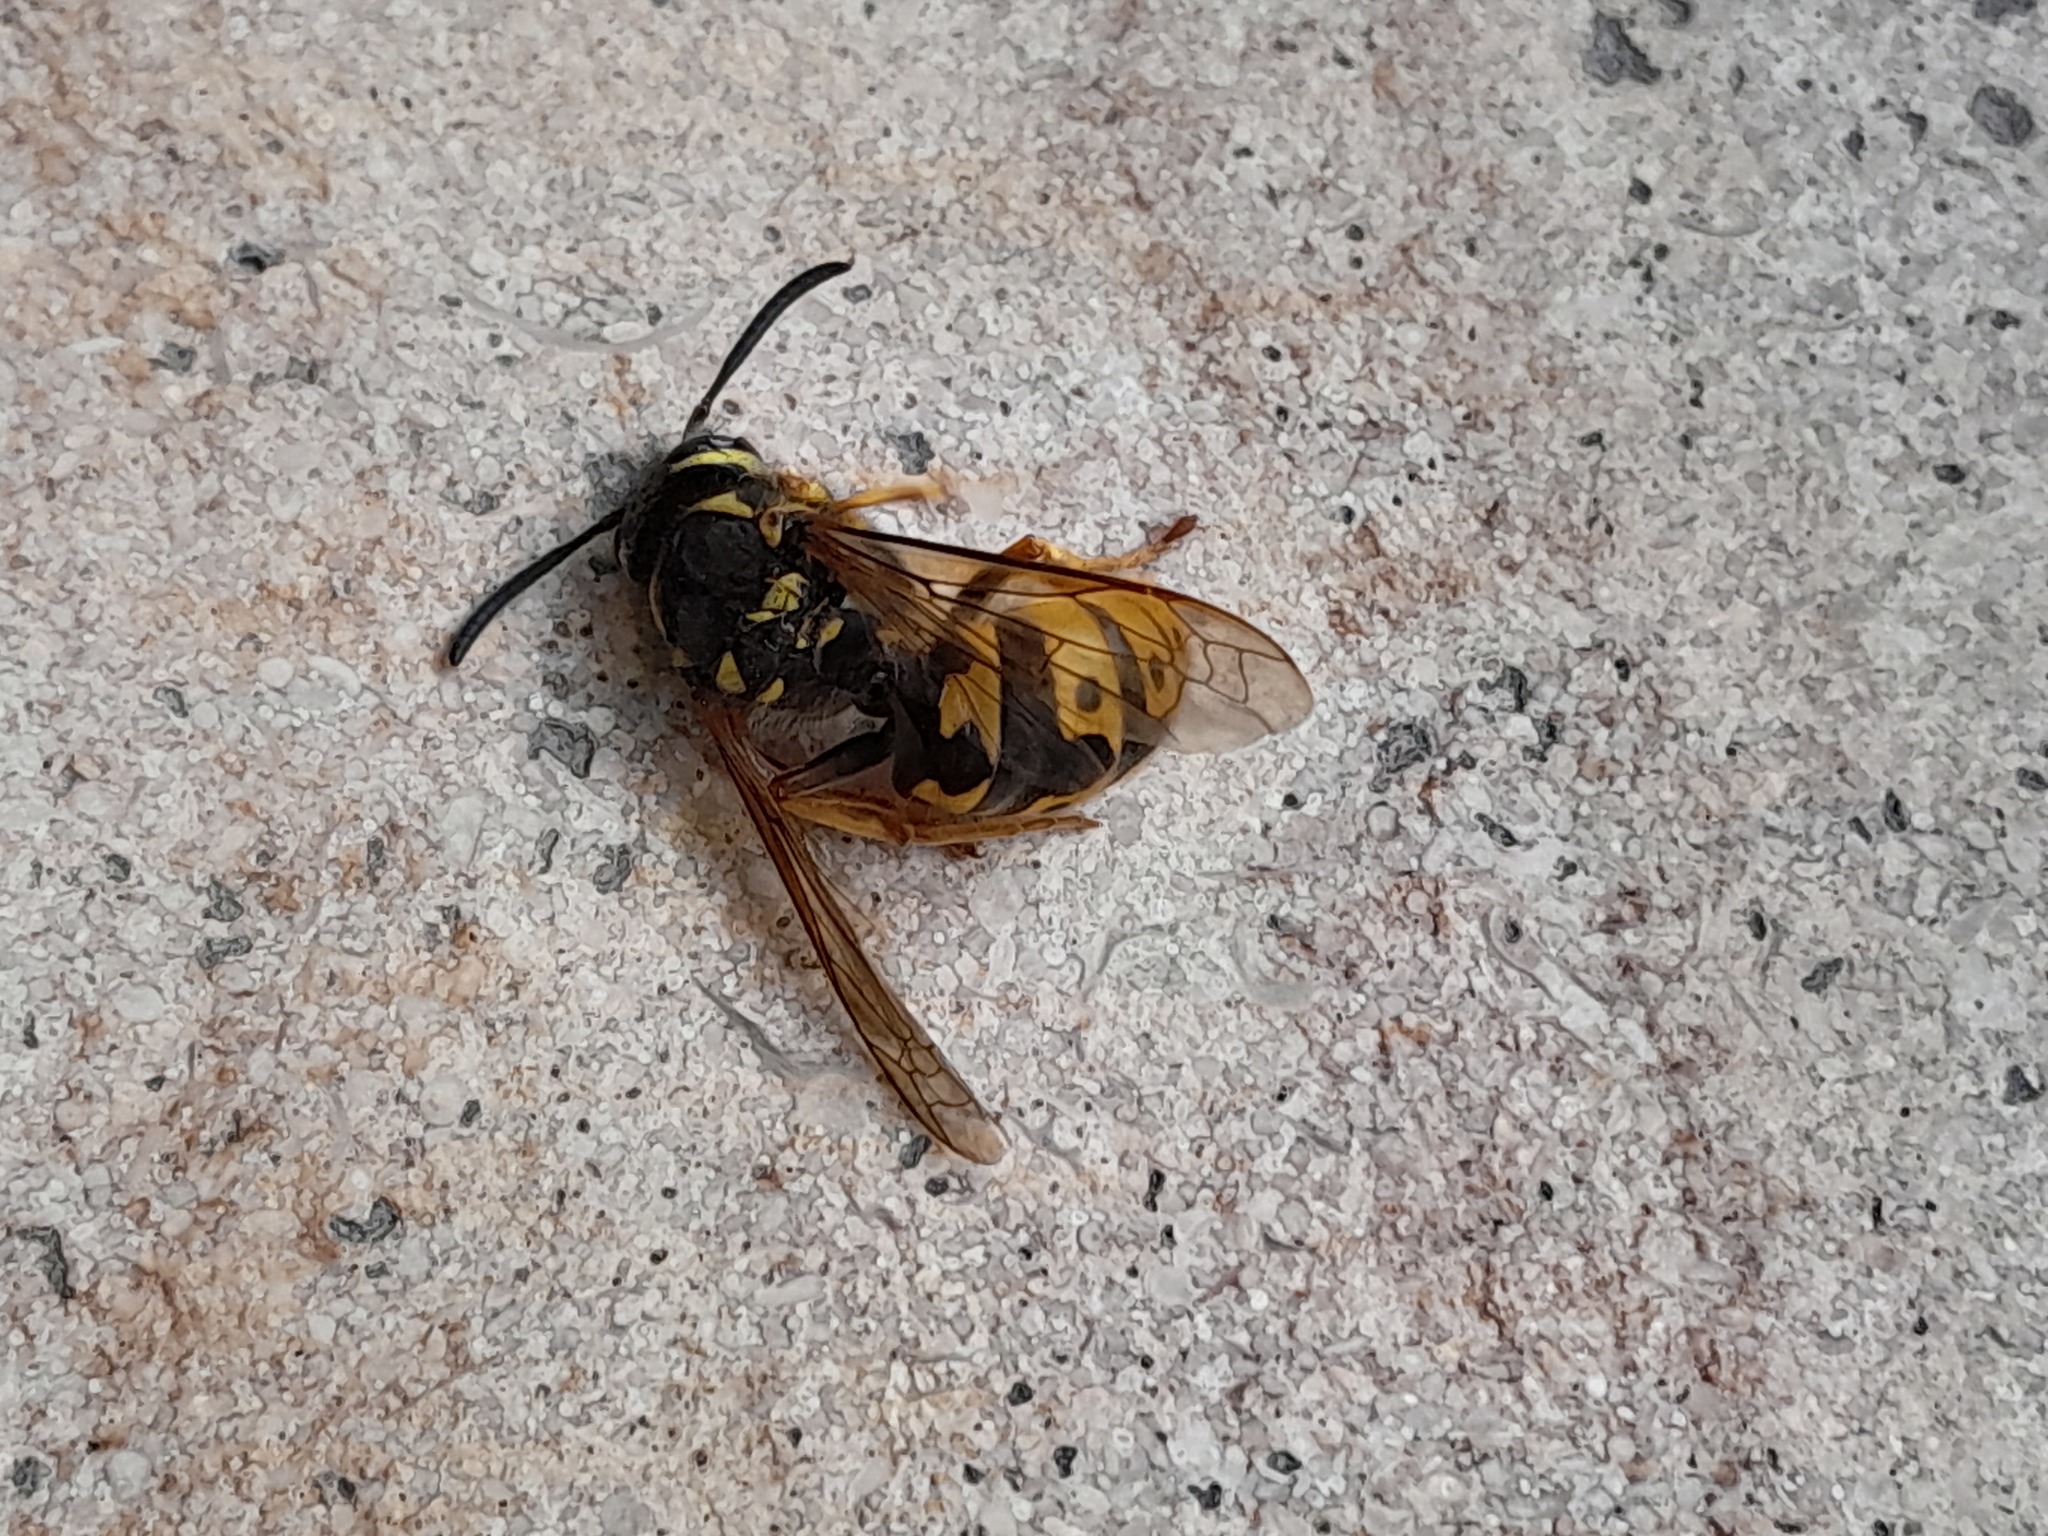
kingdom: Animalia
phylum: Arthropoda
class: Insecta
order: Hymenoptera
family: Vespidae
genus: Vespula
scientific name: Vespula germanica
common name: German wasp
